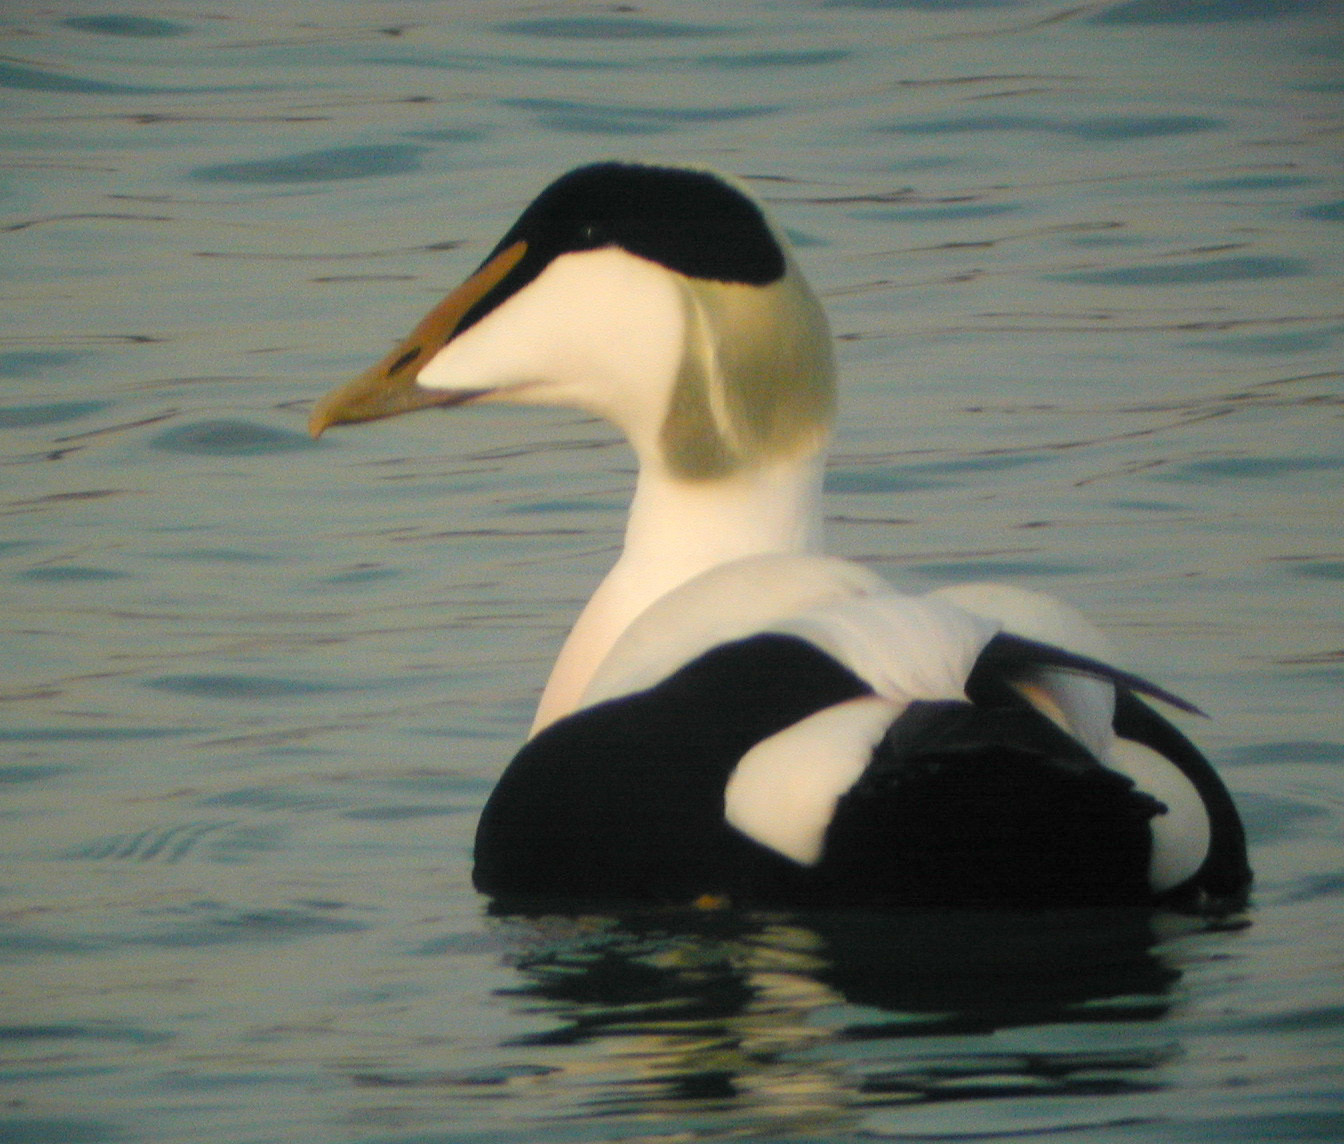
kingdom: Animalia
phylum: Chordata
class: Aves
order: Anseriformes
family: Anatidae
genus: Somateria
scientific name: Somateria mollissima
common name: Common eider
